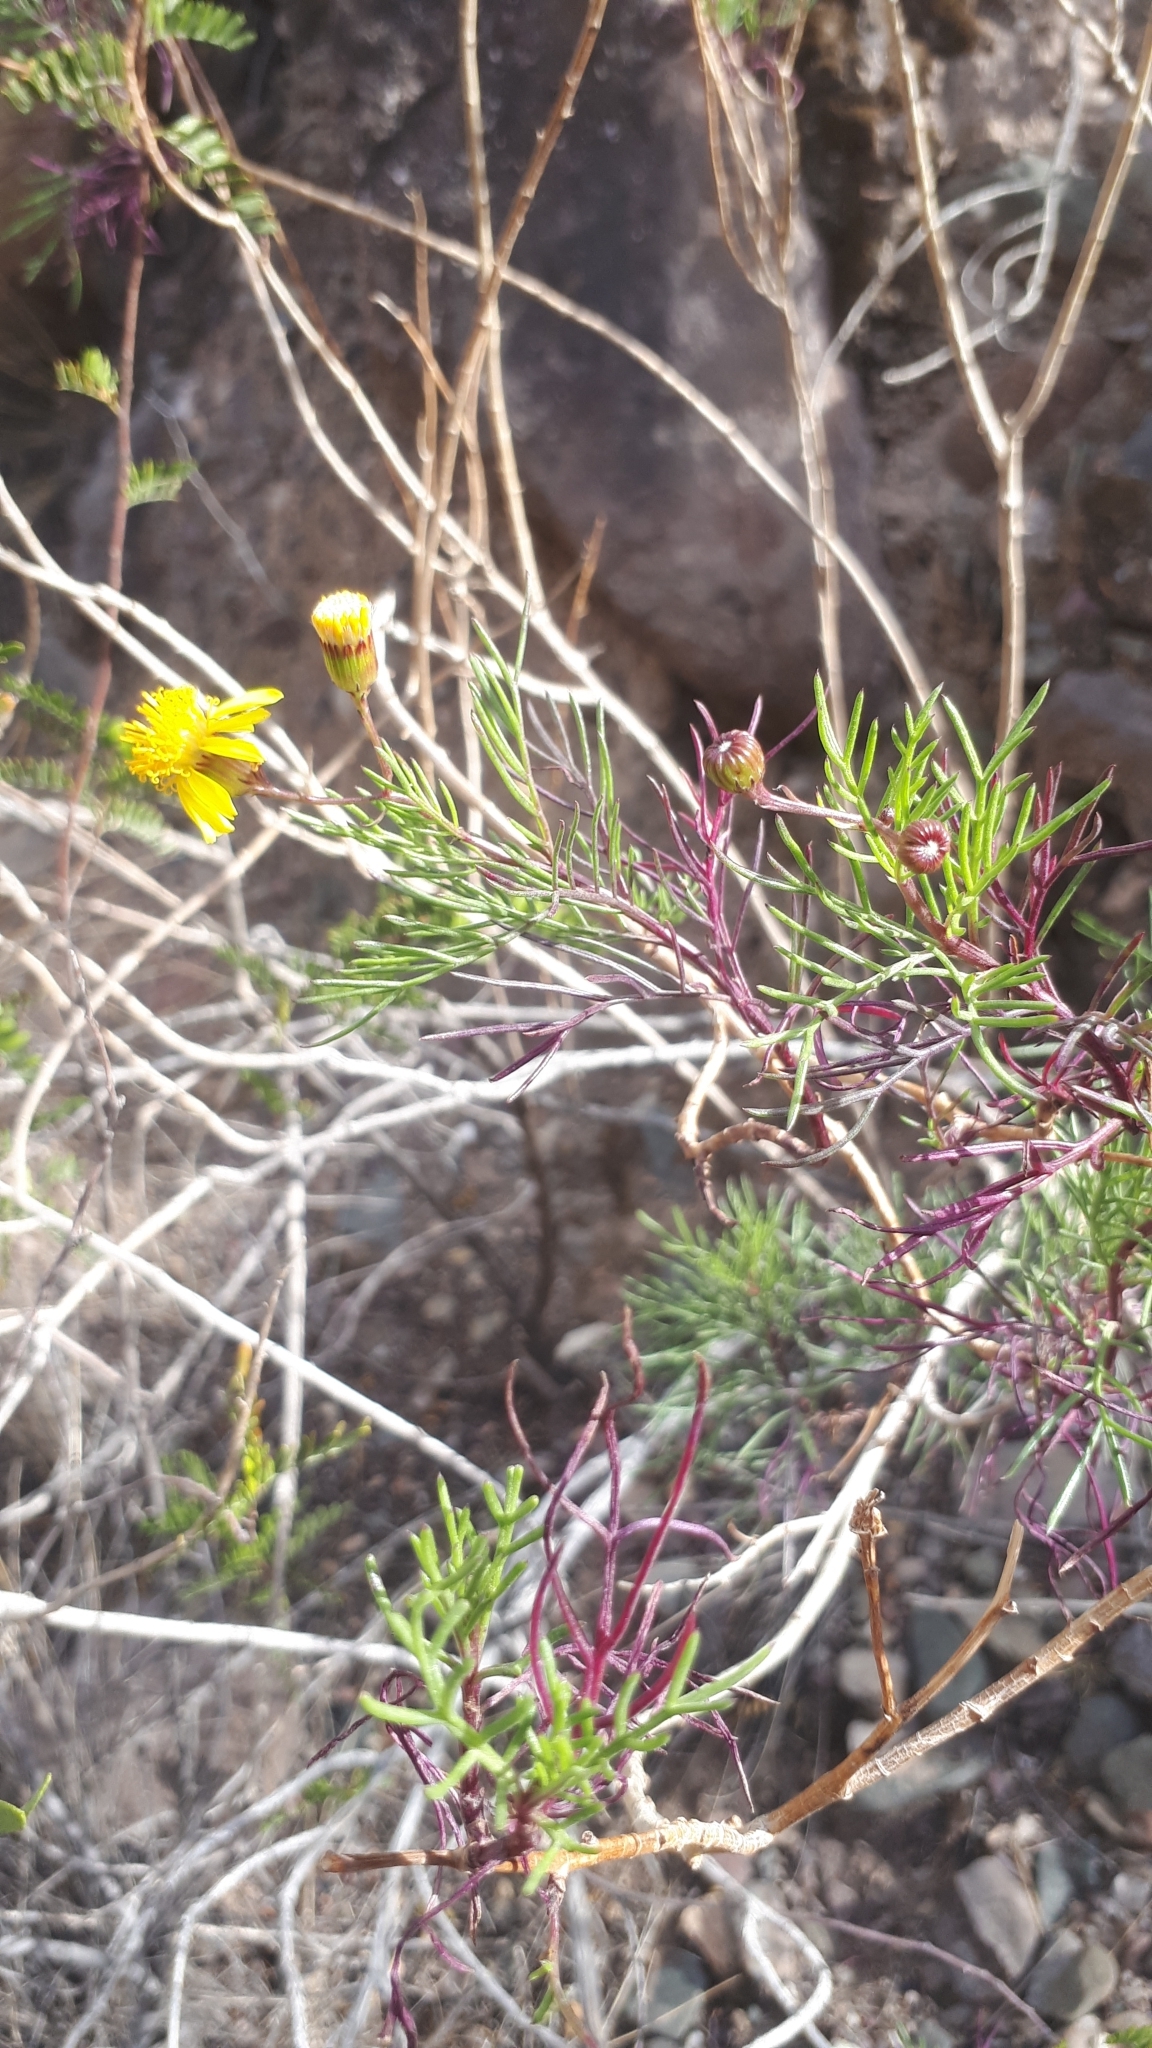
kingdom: Plantae
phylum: Tracheophyta
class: Magnoliopsida
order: Asterales
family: Asteraceae
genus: Senecio
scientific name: Senecio subulatus
